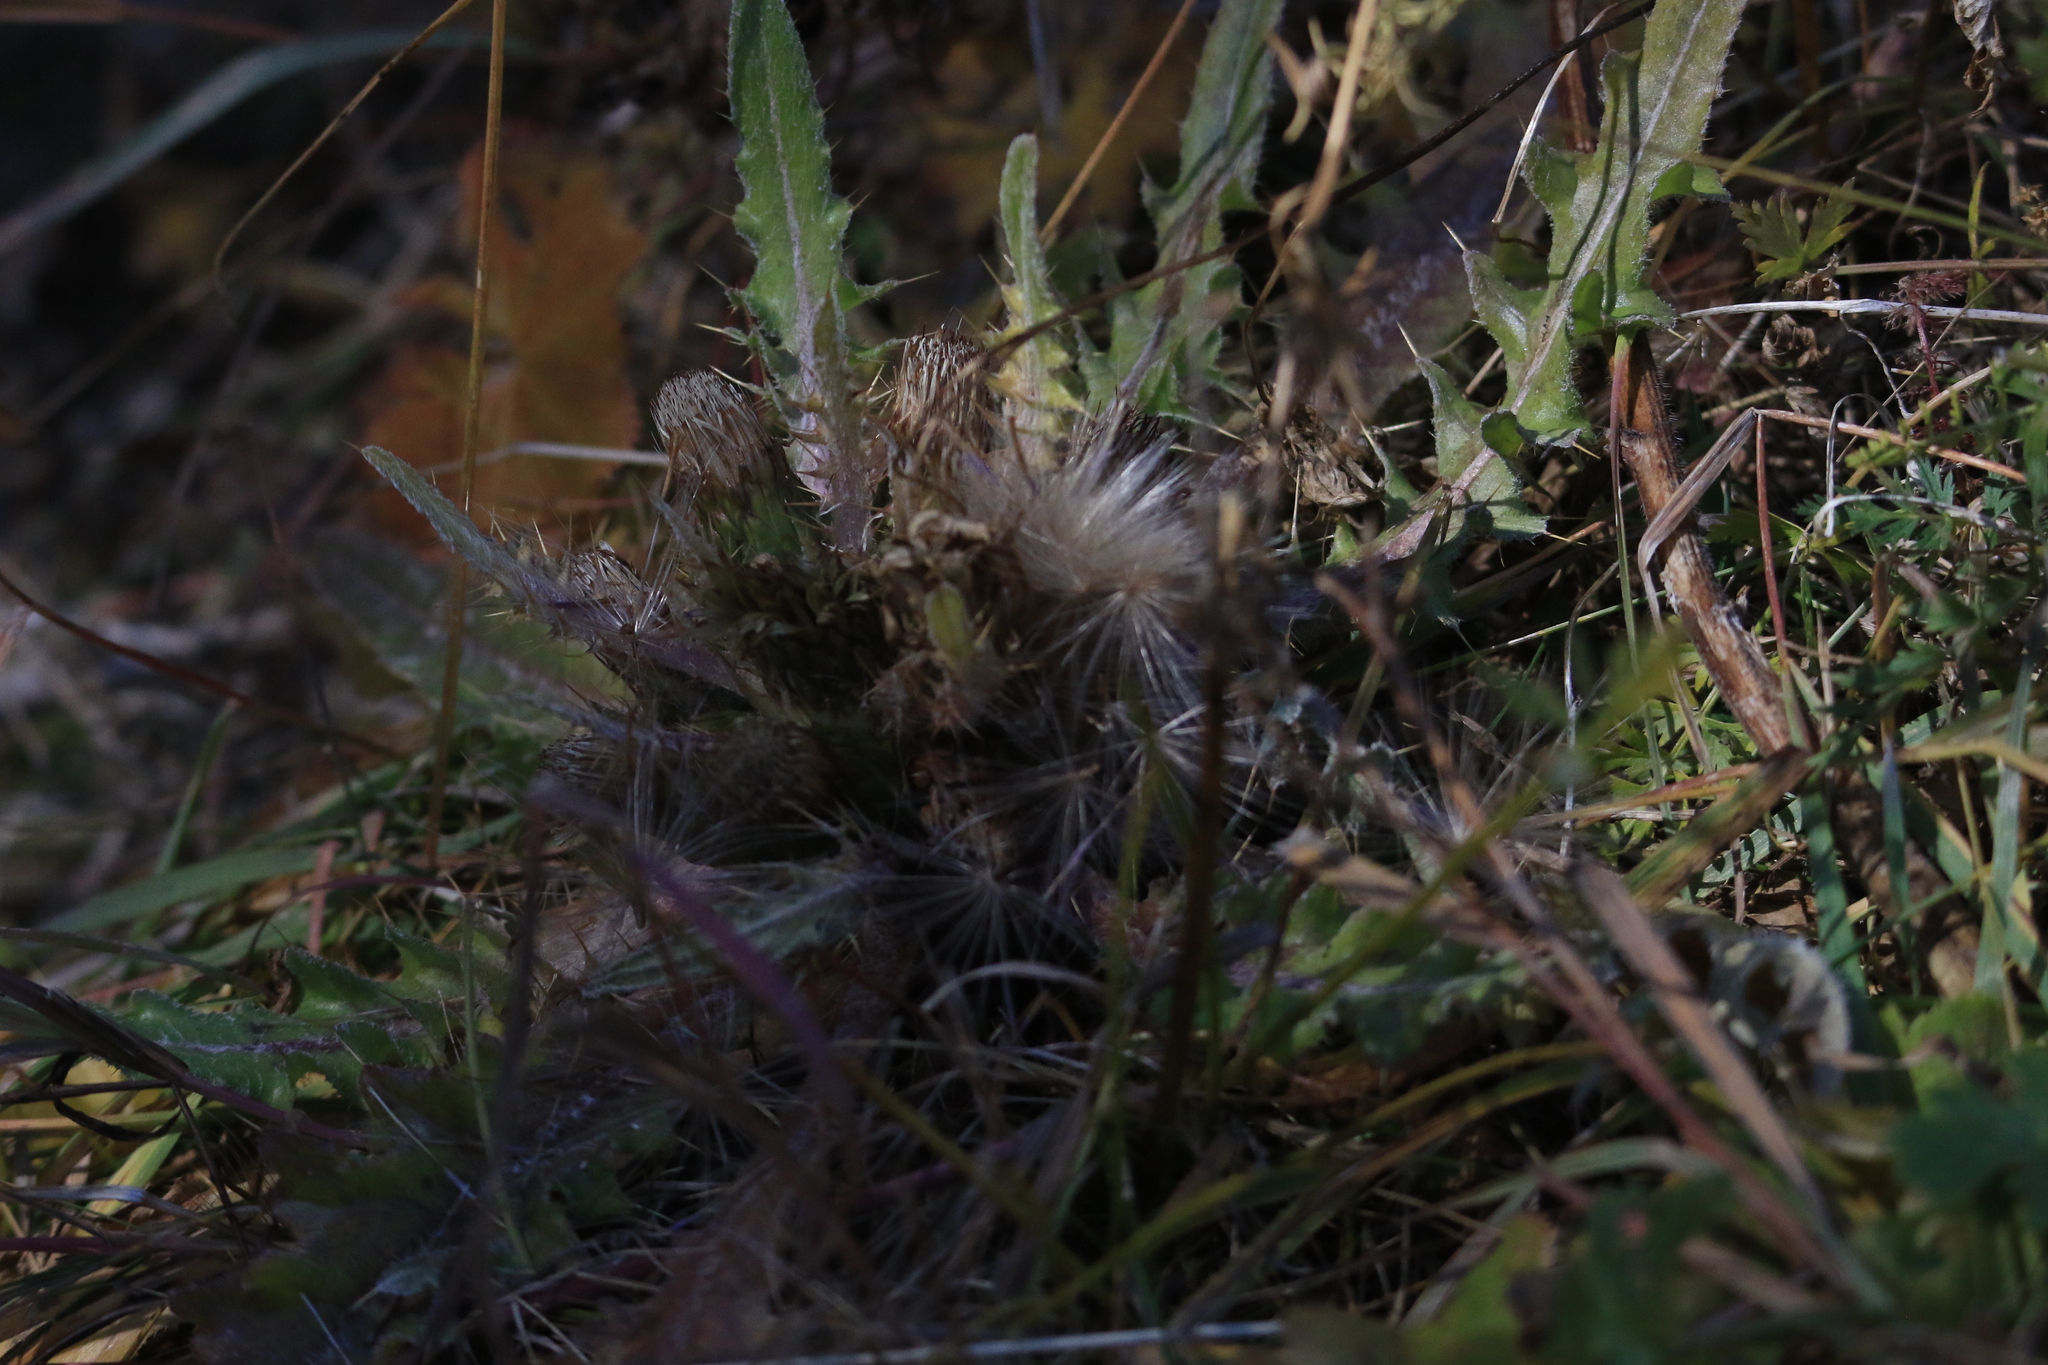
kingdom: Plantae
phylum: Tracheophyta
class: Magnoliopsida
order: Asterales
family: Asteraceae
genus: Cirsium
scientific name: Cirsium esculentum
